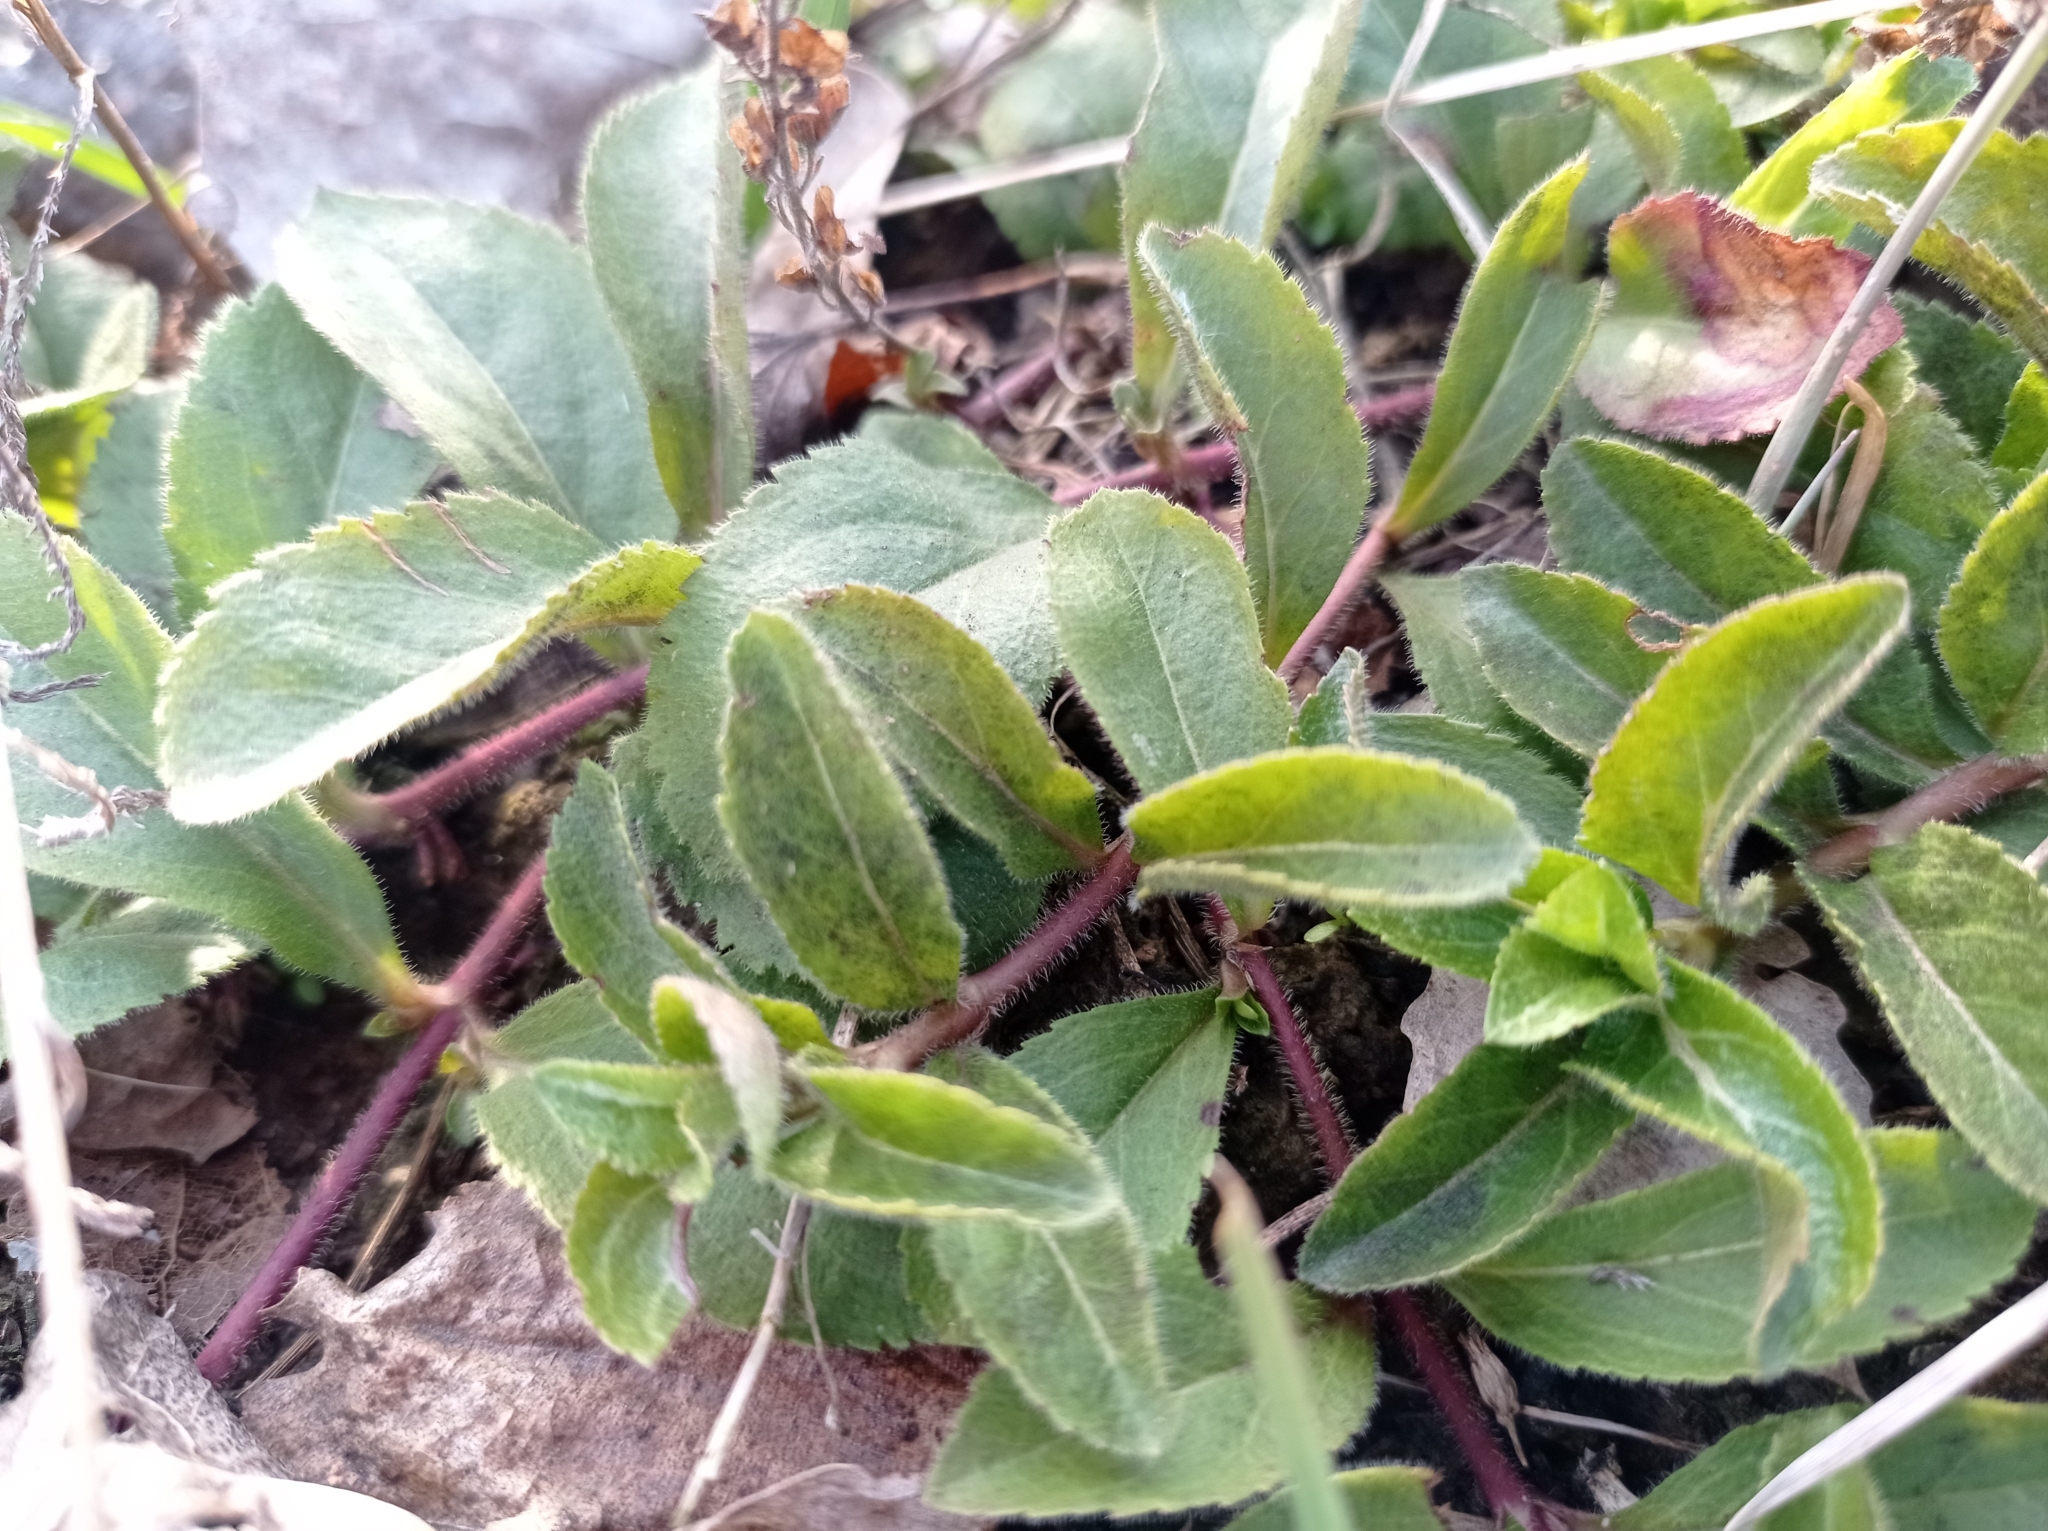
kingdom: Plantae
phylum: Tracheophyta
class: Magnoliopsida
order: Lamiales
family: Plantaginaceae
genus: Veronica
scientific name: Veronica officinalis
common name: Common speedwell
